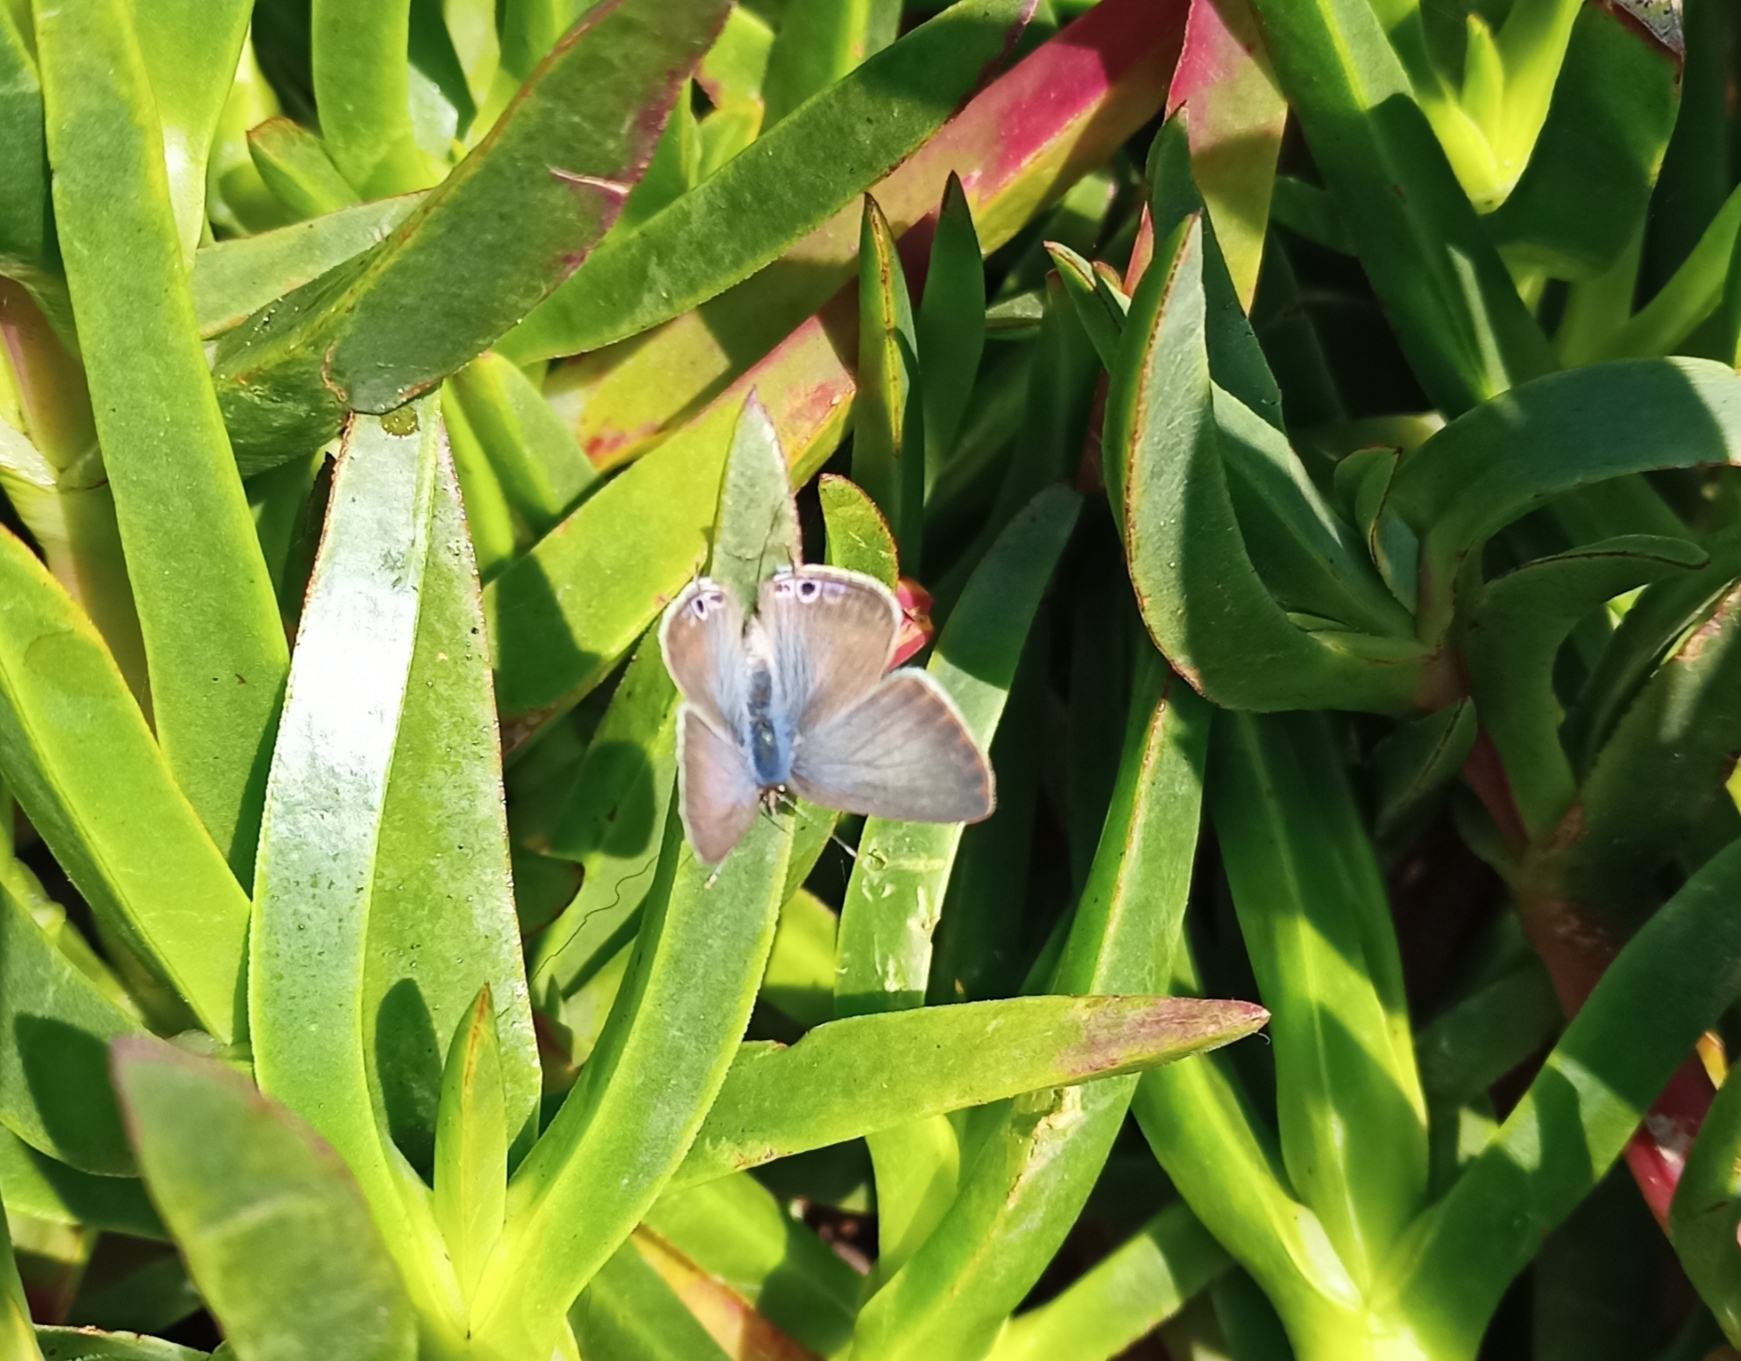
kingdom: Animalia
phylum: Arthropoda
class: Insecta
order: Lepidoptera
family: Lycaenidae
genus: Lampides
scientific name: Lampides boeticus
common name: Long-tailed blue
